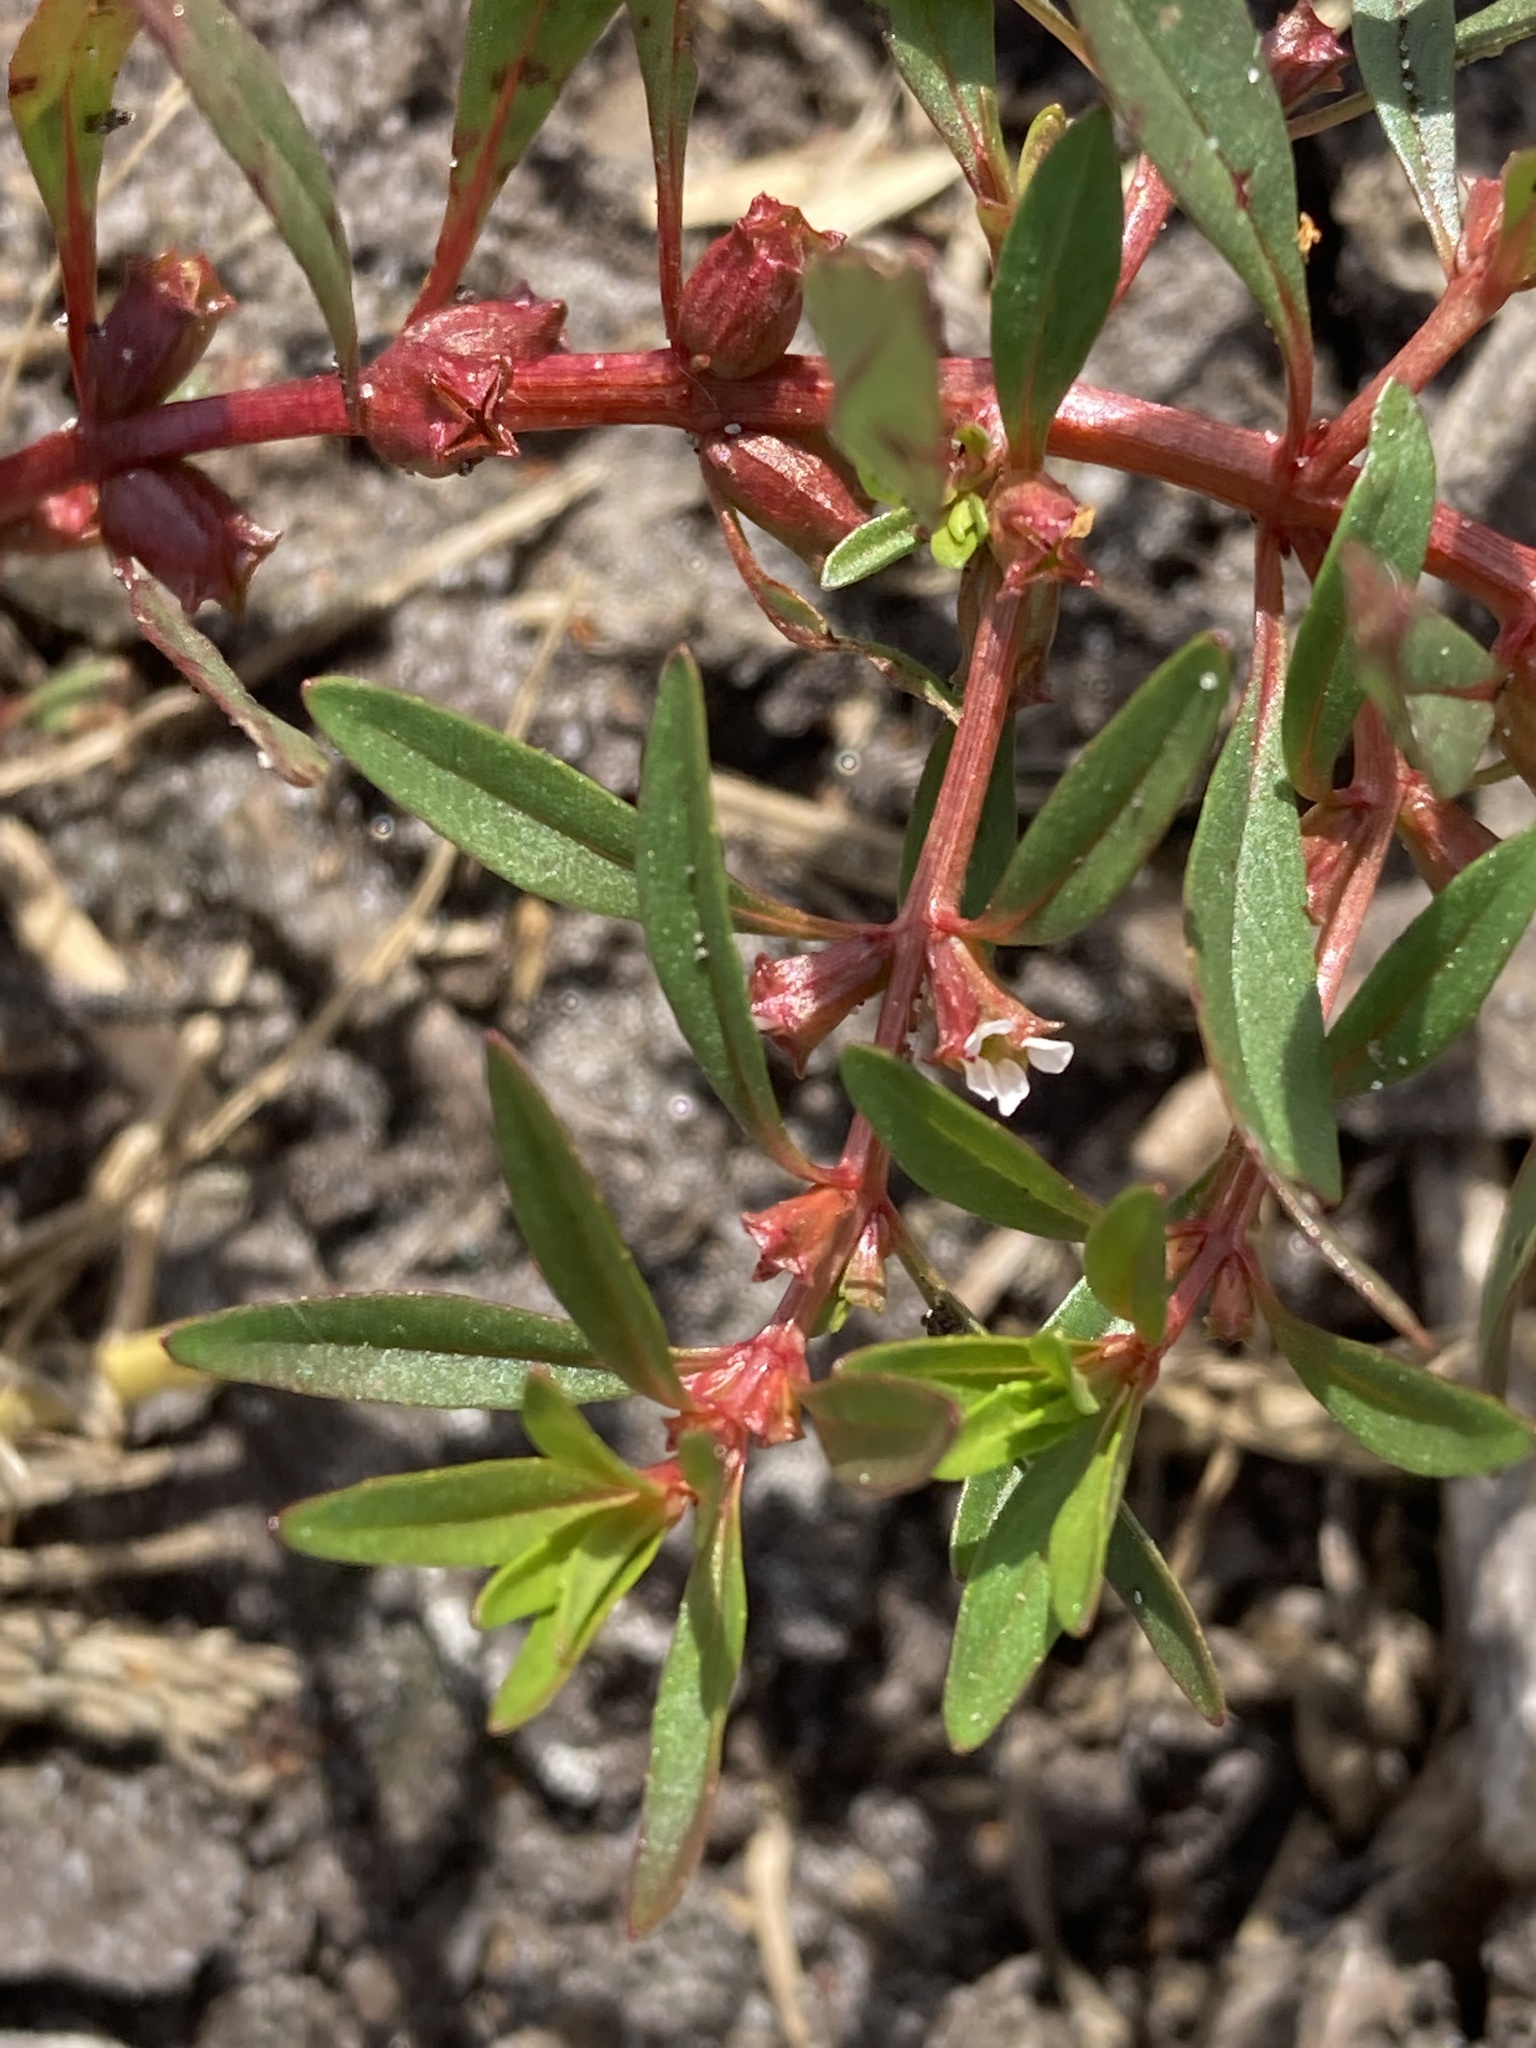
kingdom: Plantae
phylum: Tracheophyta
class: Magnoliopsida
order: Myrtales
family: Lythraceae
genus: Rotala
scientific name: Rotala ramosior
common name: Lowland rotala
